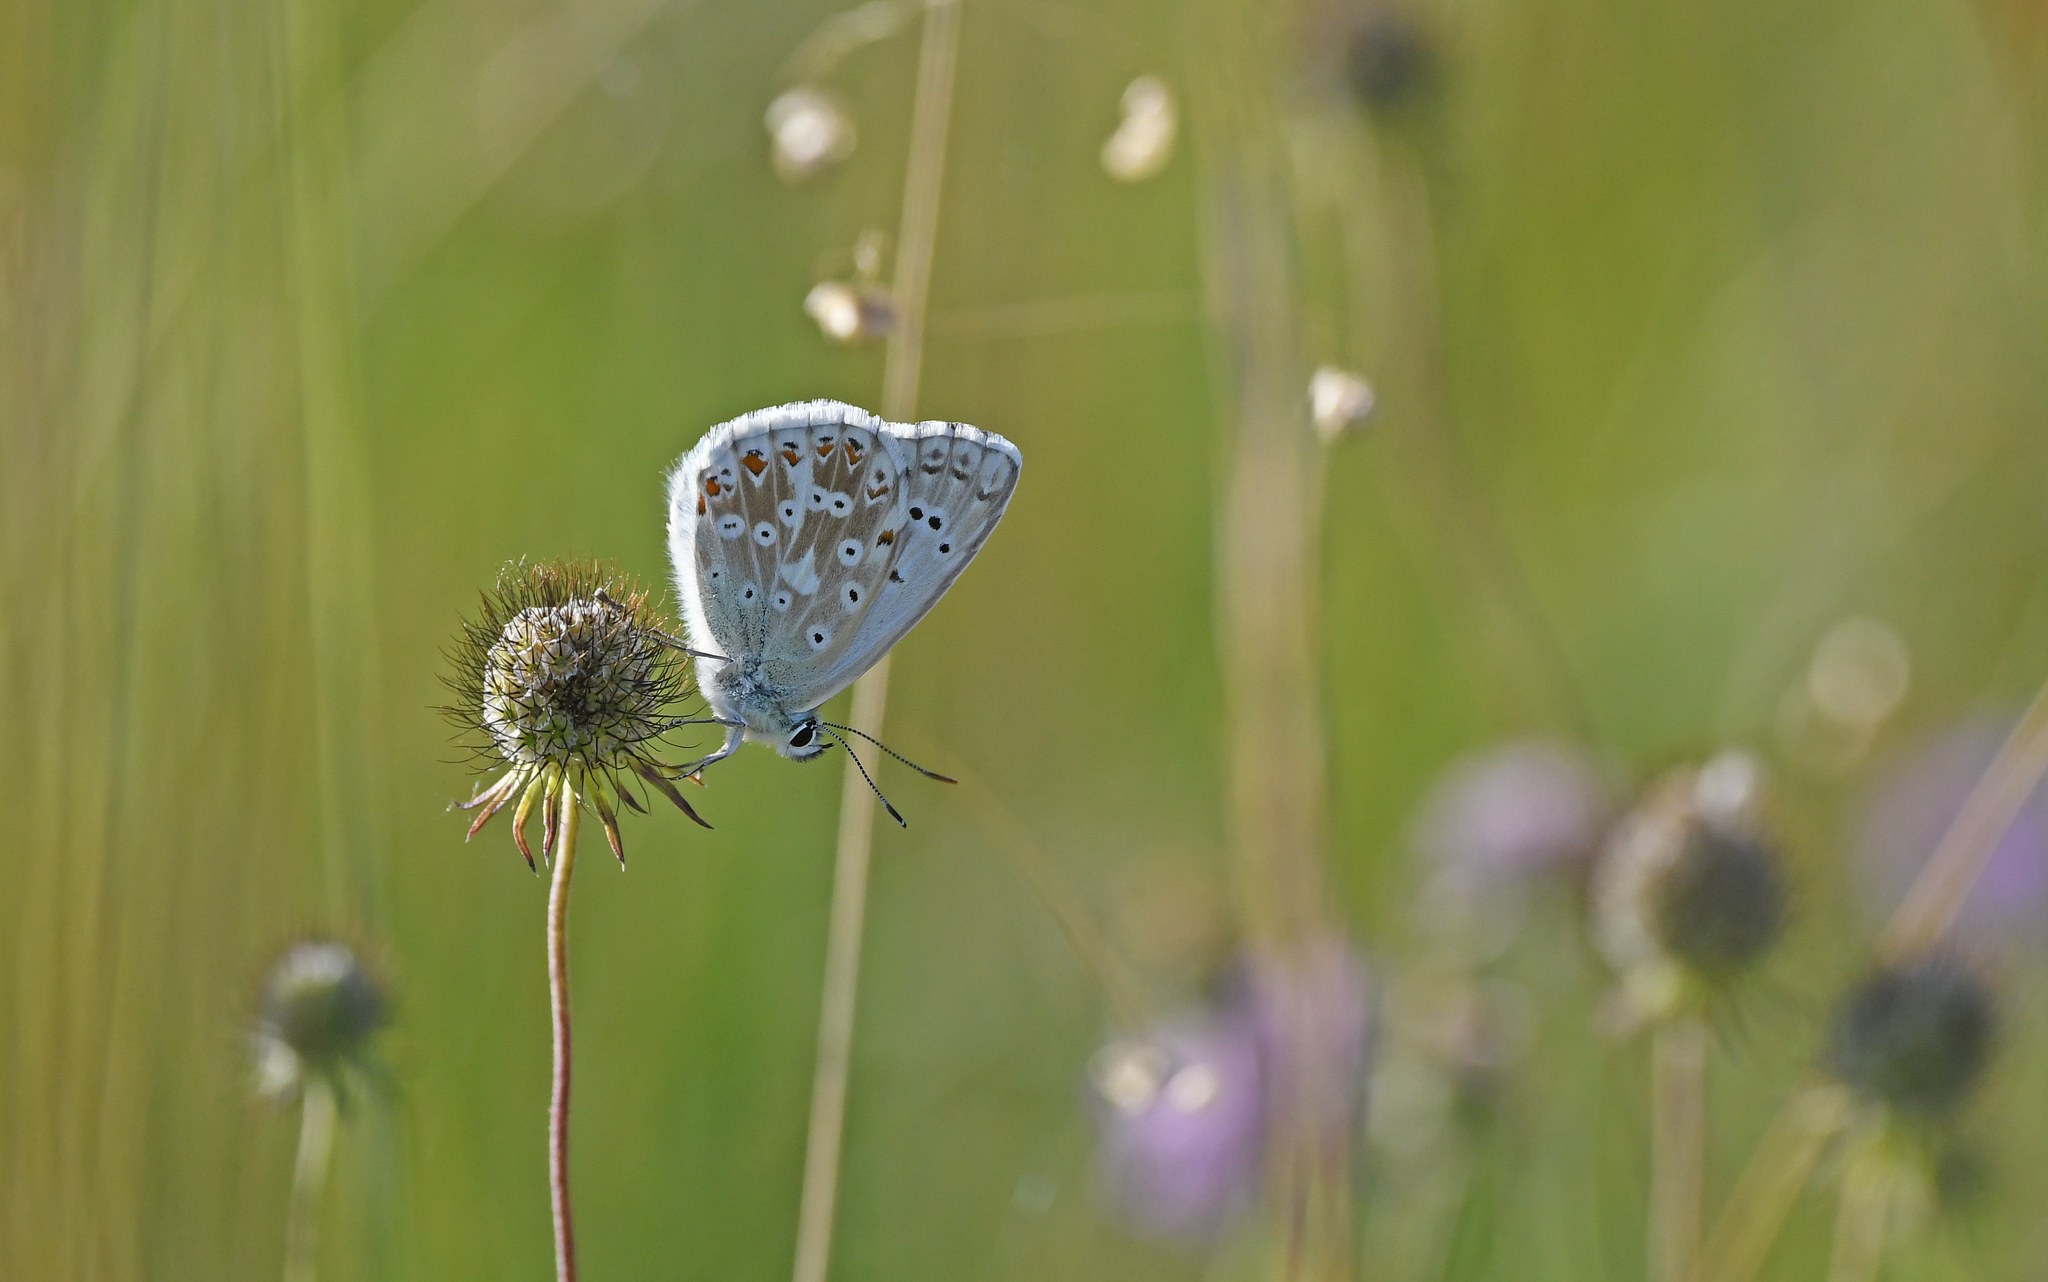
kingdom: Animalia
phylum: Arthropoda
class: Insecta
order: Lepidoptera
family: Lycaenidae
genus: Lysandra
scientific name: Lysandra coridon
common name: Chalkhill blue
